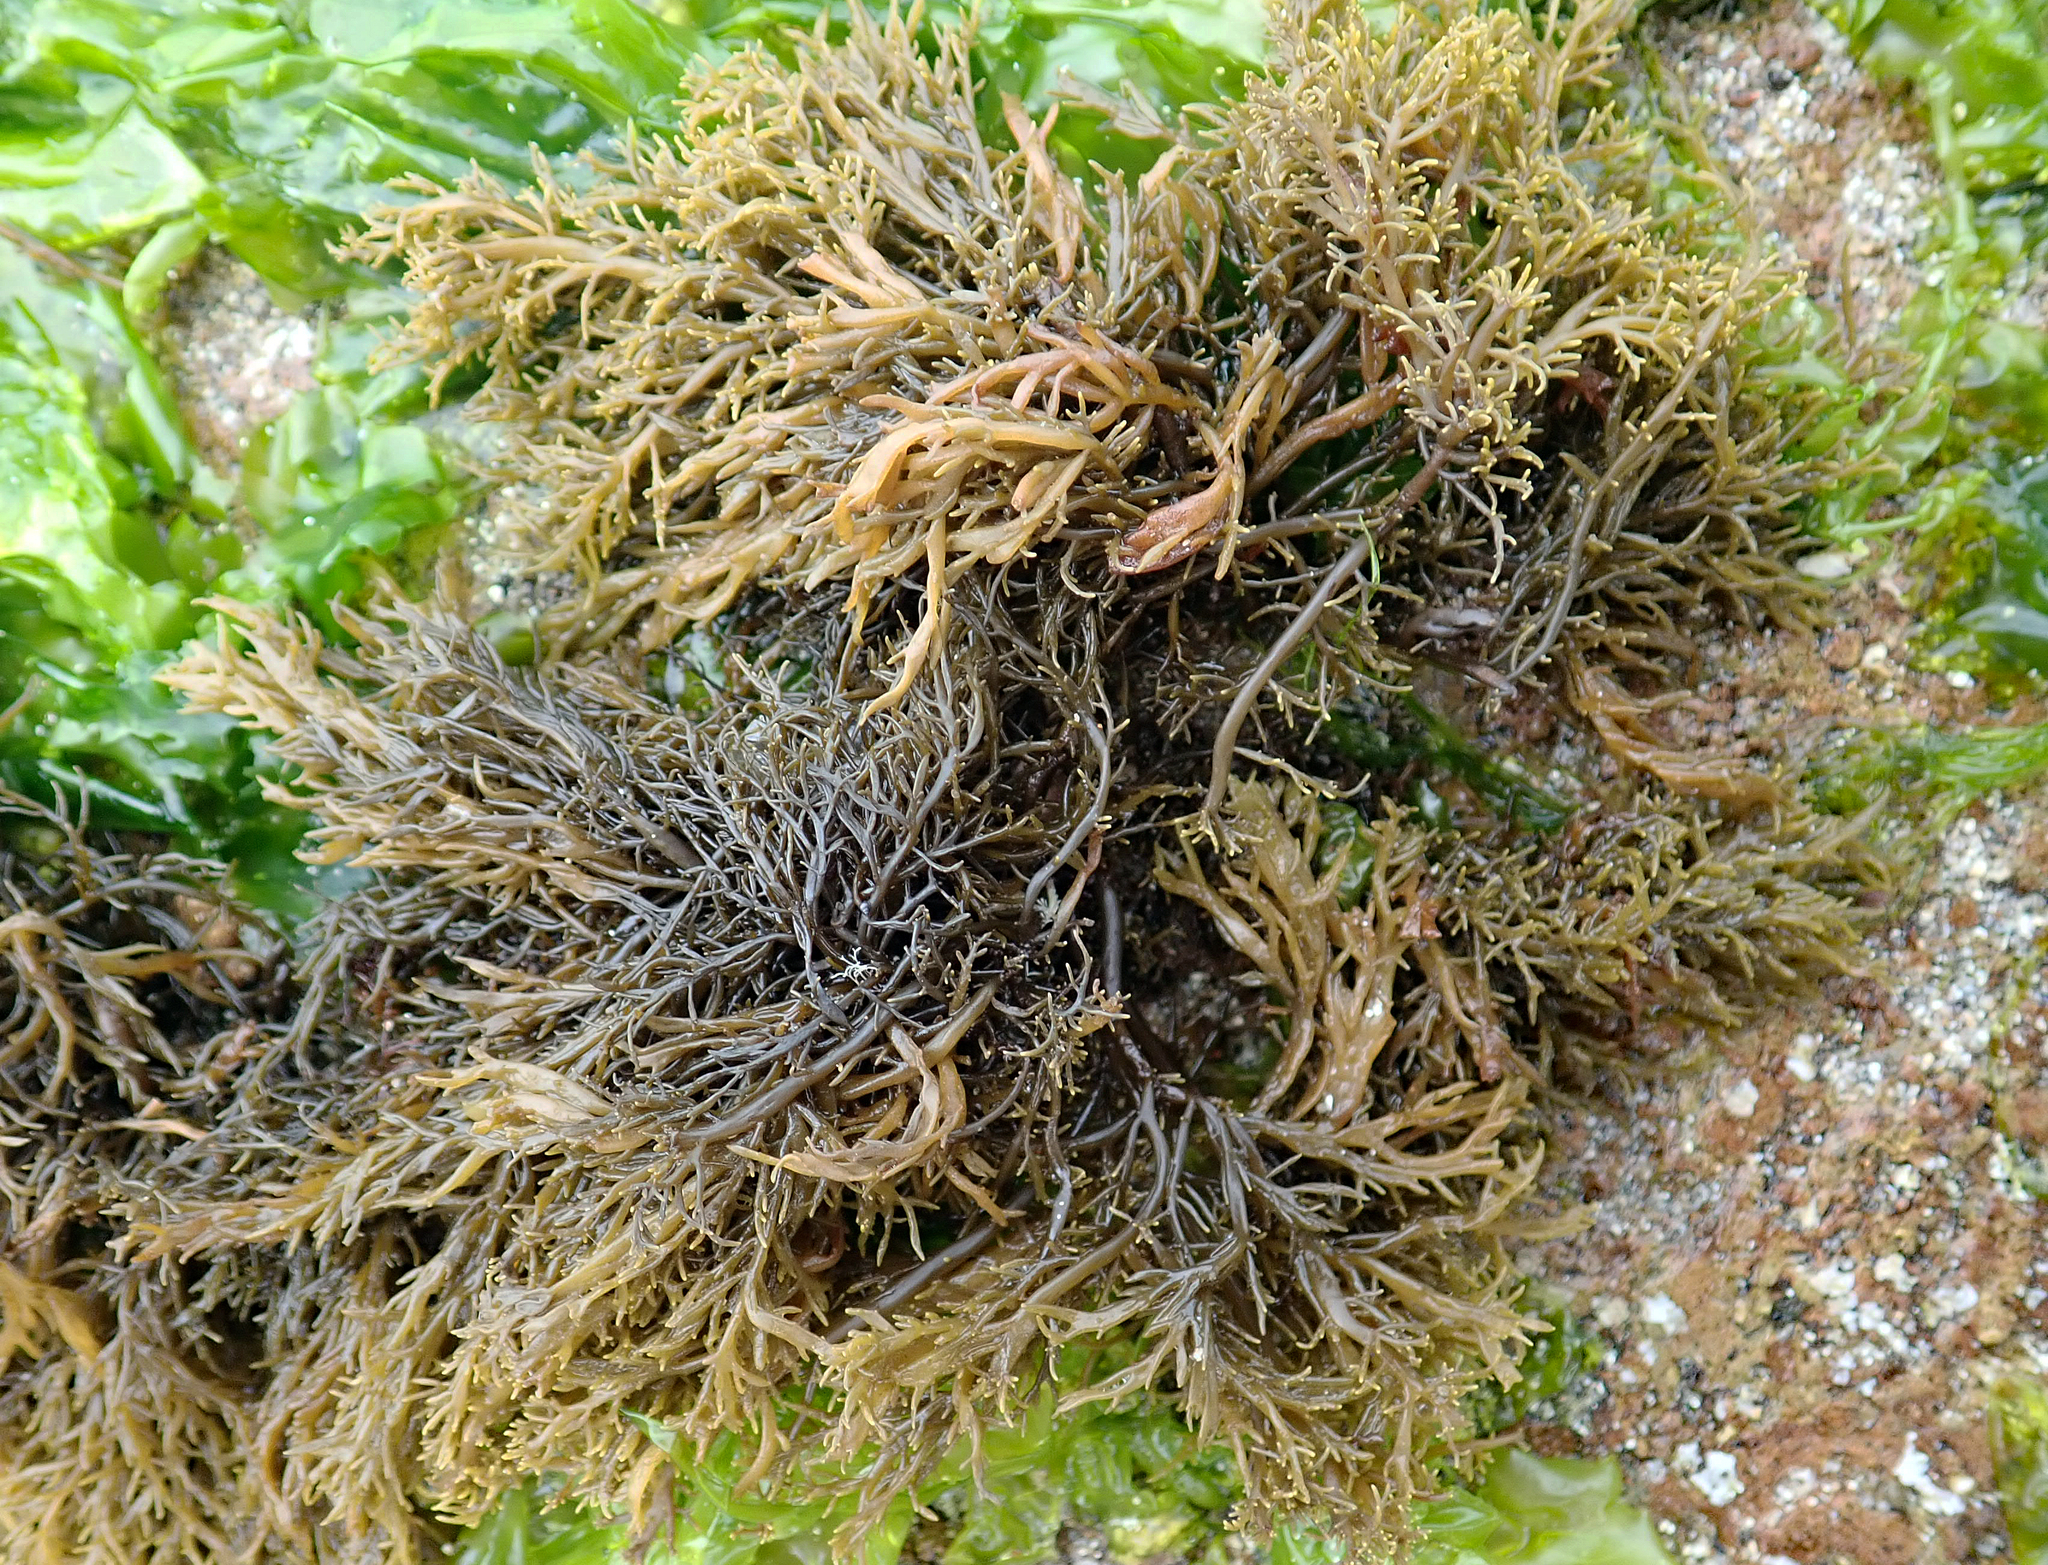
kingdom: Chromista
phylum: Ochrophyta
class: Phaeophyceae
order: Scytothamnales
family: Scytothamnaceae
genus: Scytothamnus
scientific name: Scytothamnus australis
